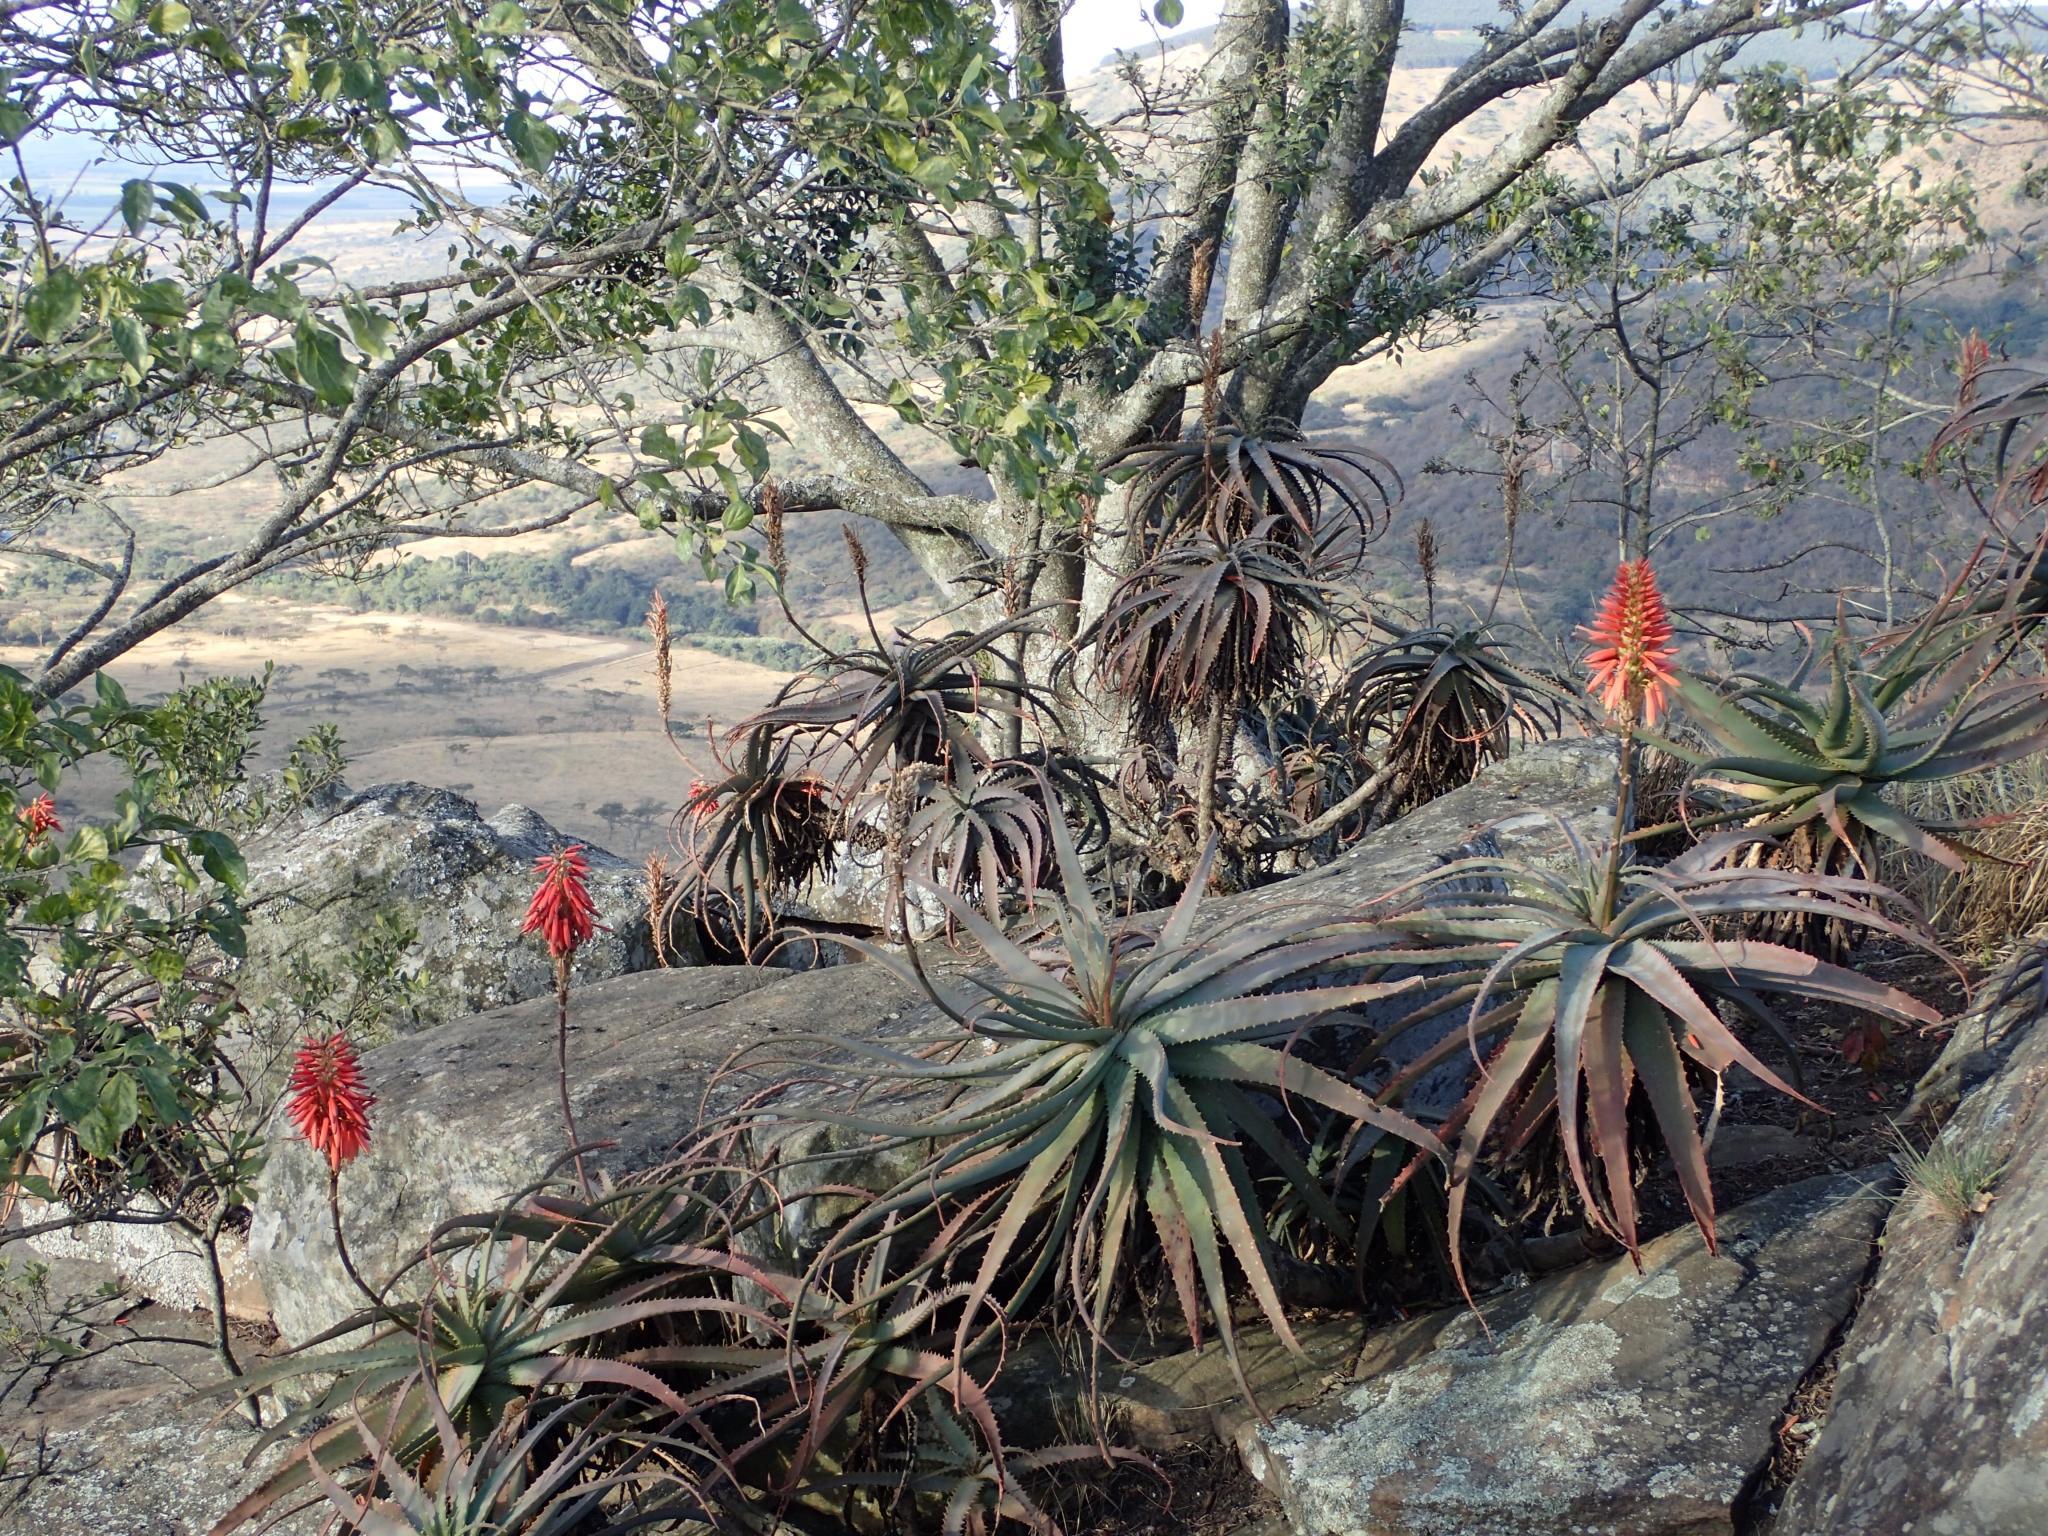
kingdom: Plantae
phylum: Tracheophyta
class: Liliopsida
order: Asparagales
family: Asphodelaceae
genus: Aloe
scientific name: Aloe arborescens
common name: Candelabra aloe
